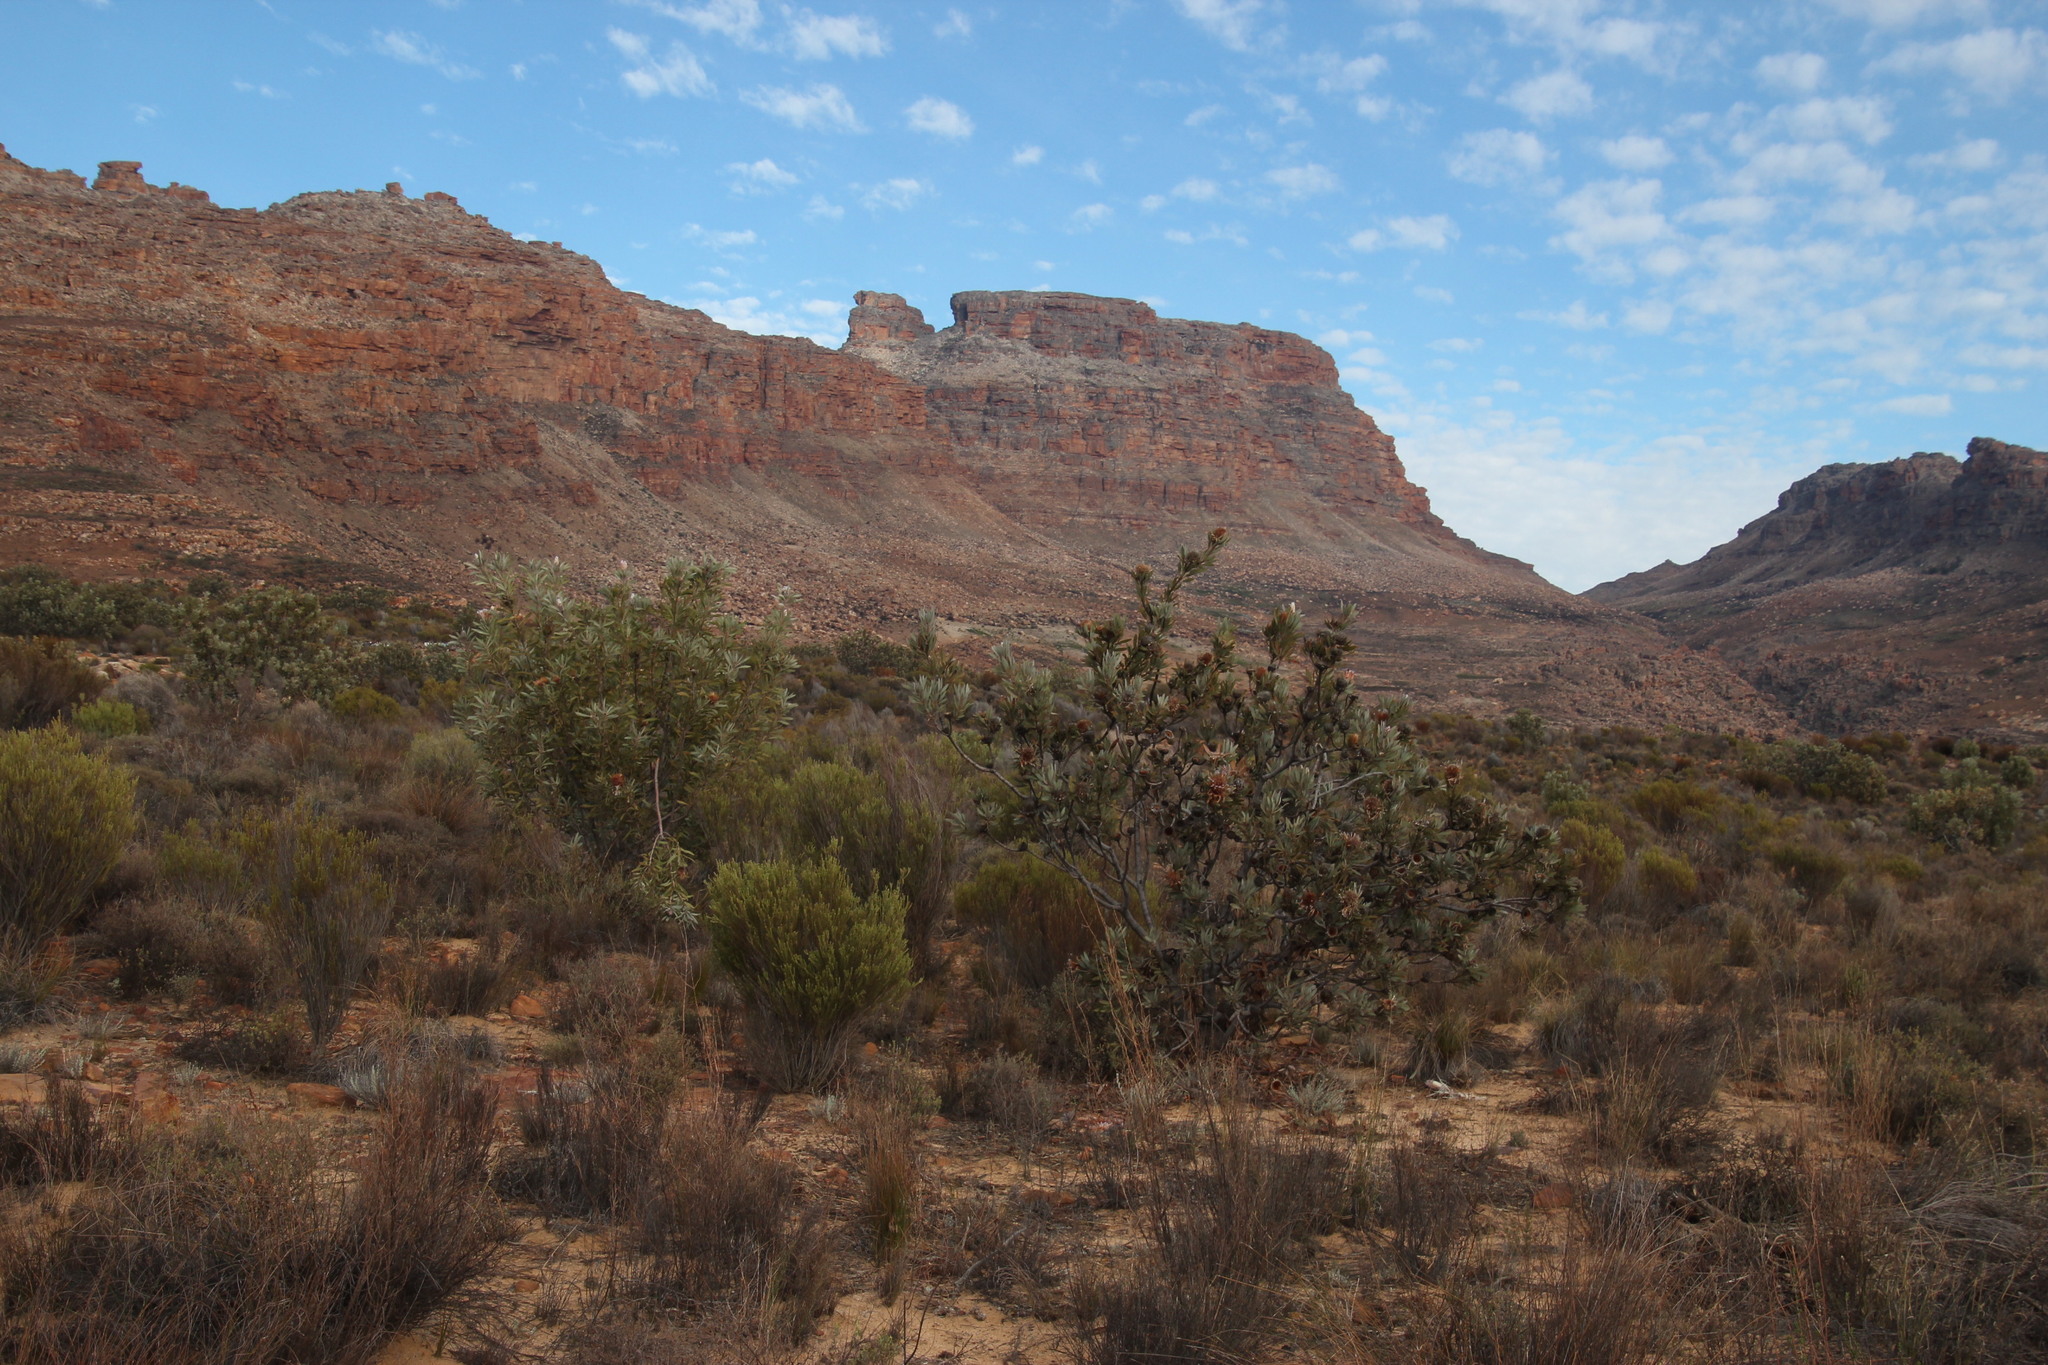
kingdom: Plantae
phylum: Tracheophyta
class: Magnoliopsida
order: Proteales
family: Proteaceae
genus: Protea
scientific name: Protea laurifolia
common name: Grey-leaf sugarbsh
